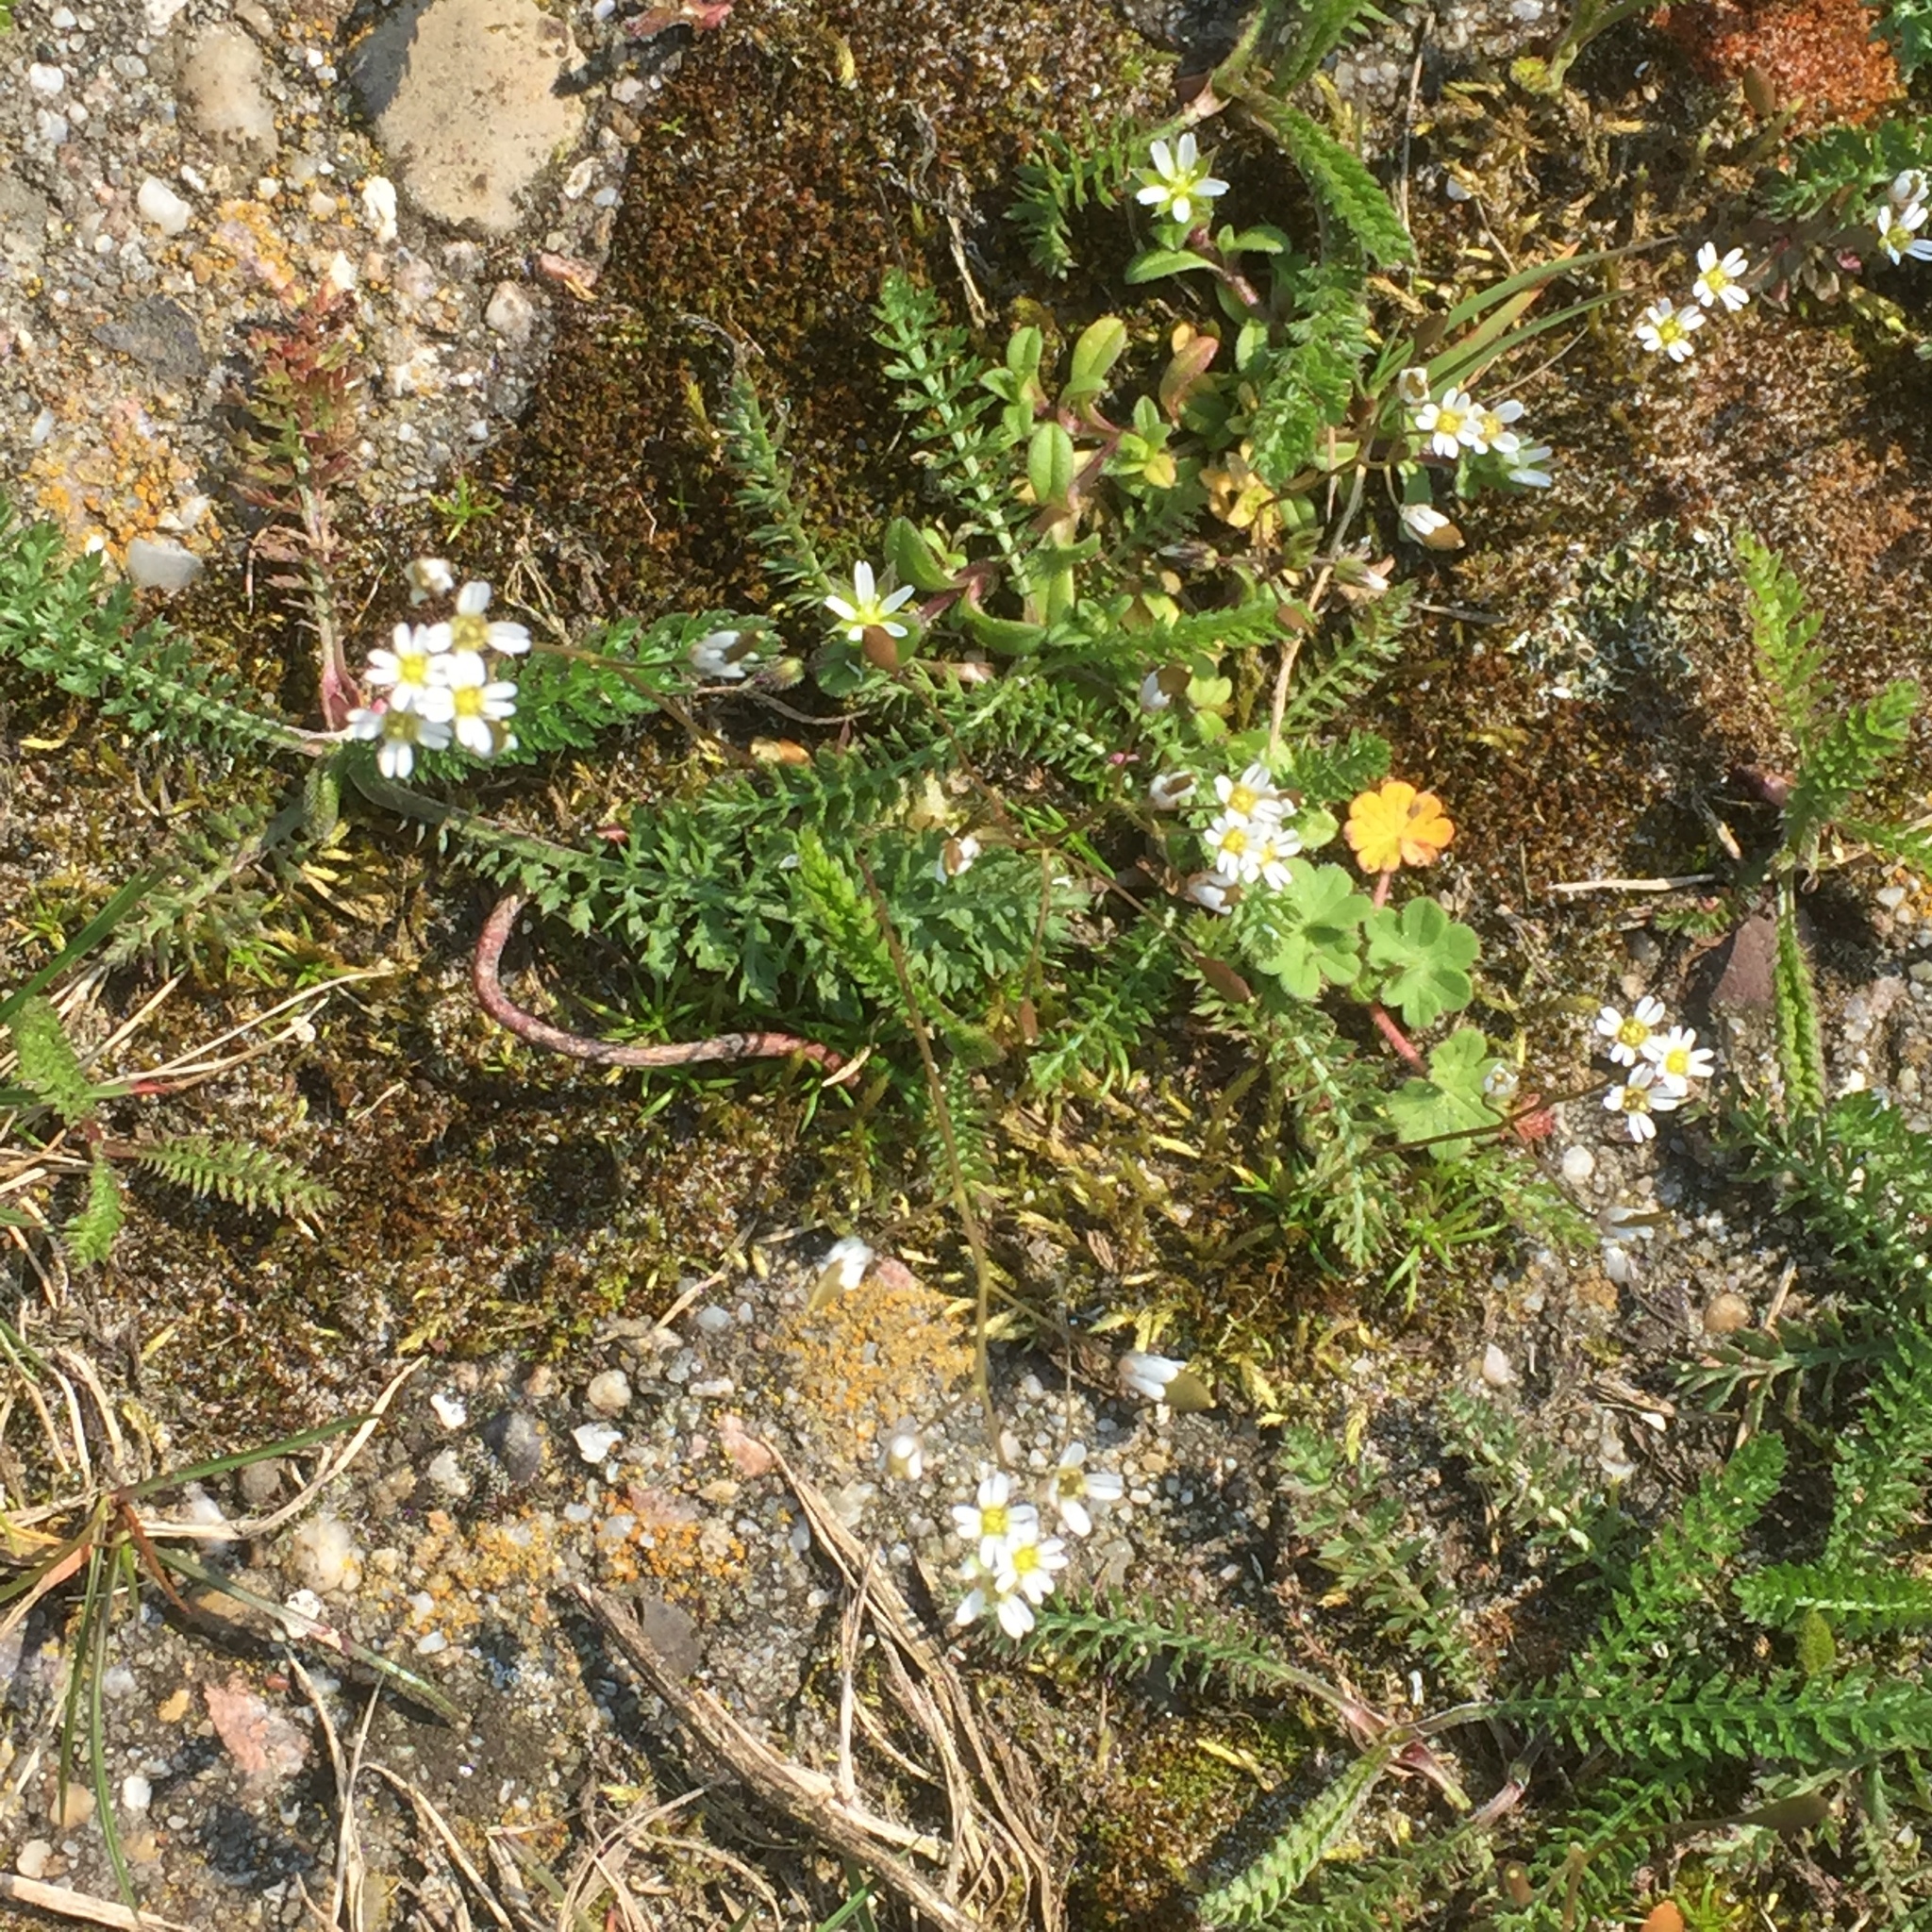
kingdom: Plantae
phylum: Tracheophyta
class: Magnoliopsida
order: Brassicales
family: Brassicaceae
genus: Draba
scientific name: Draba verna
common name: Spring draba
